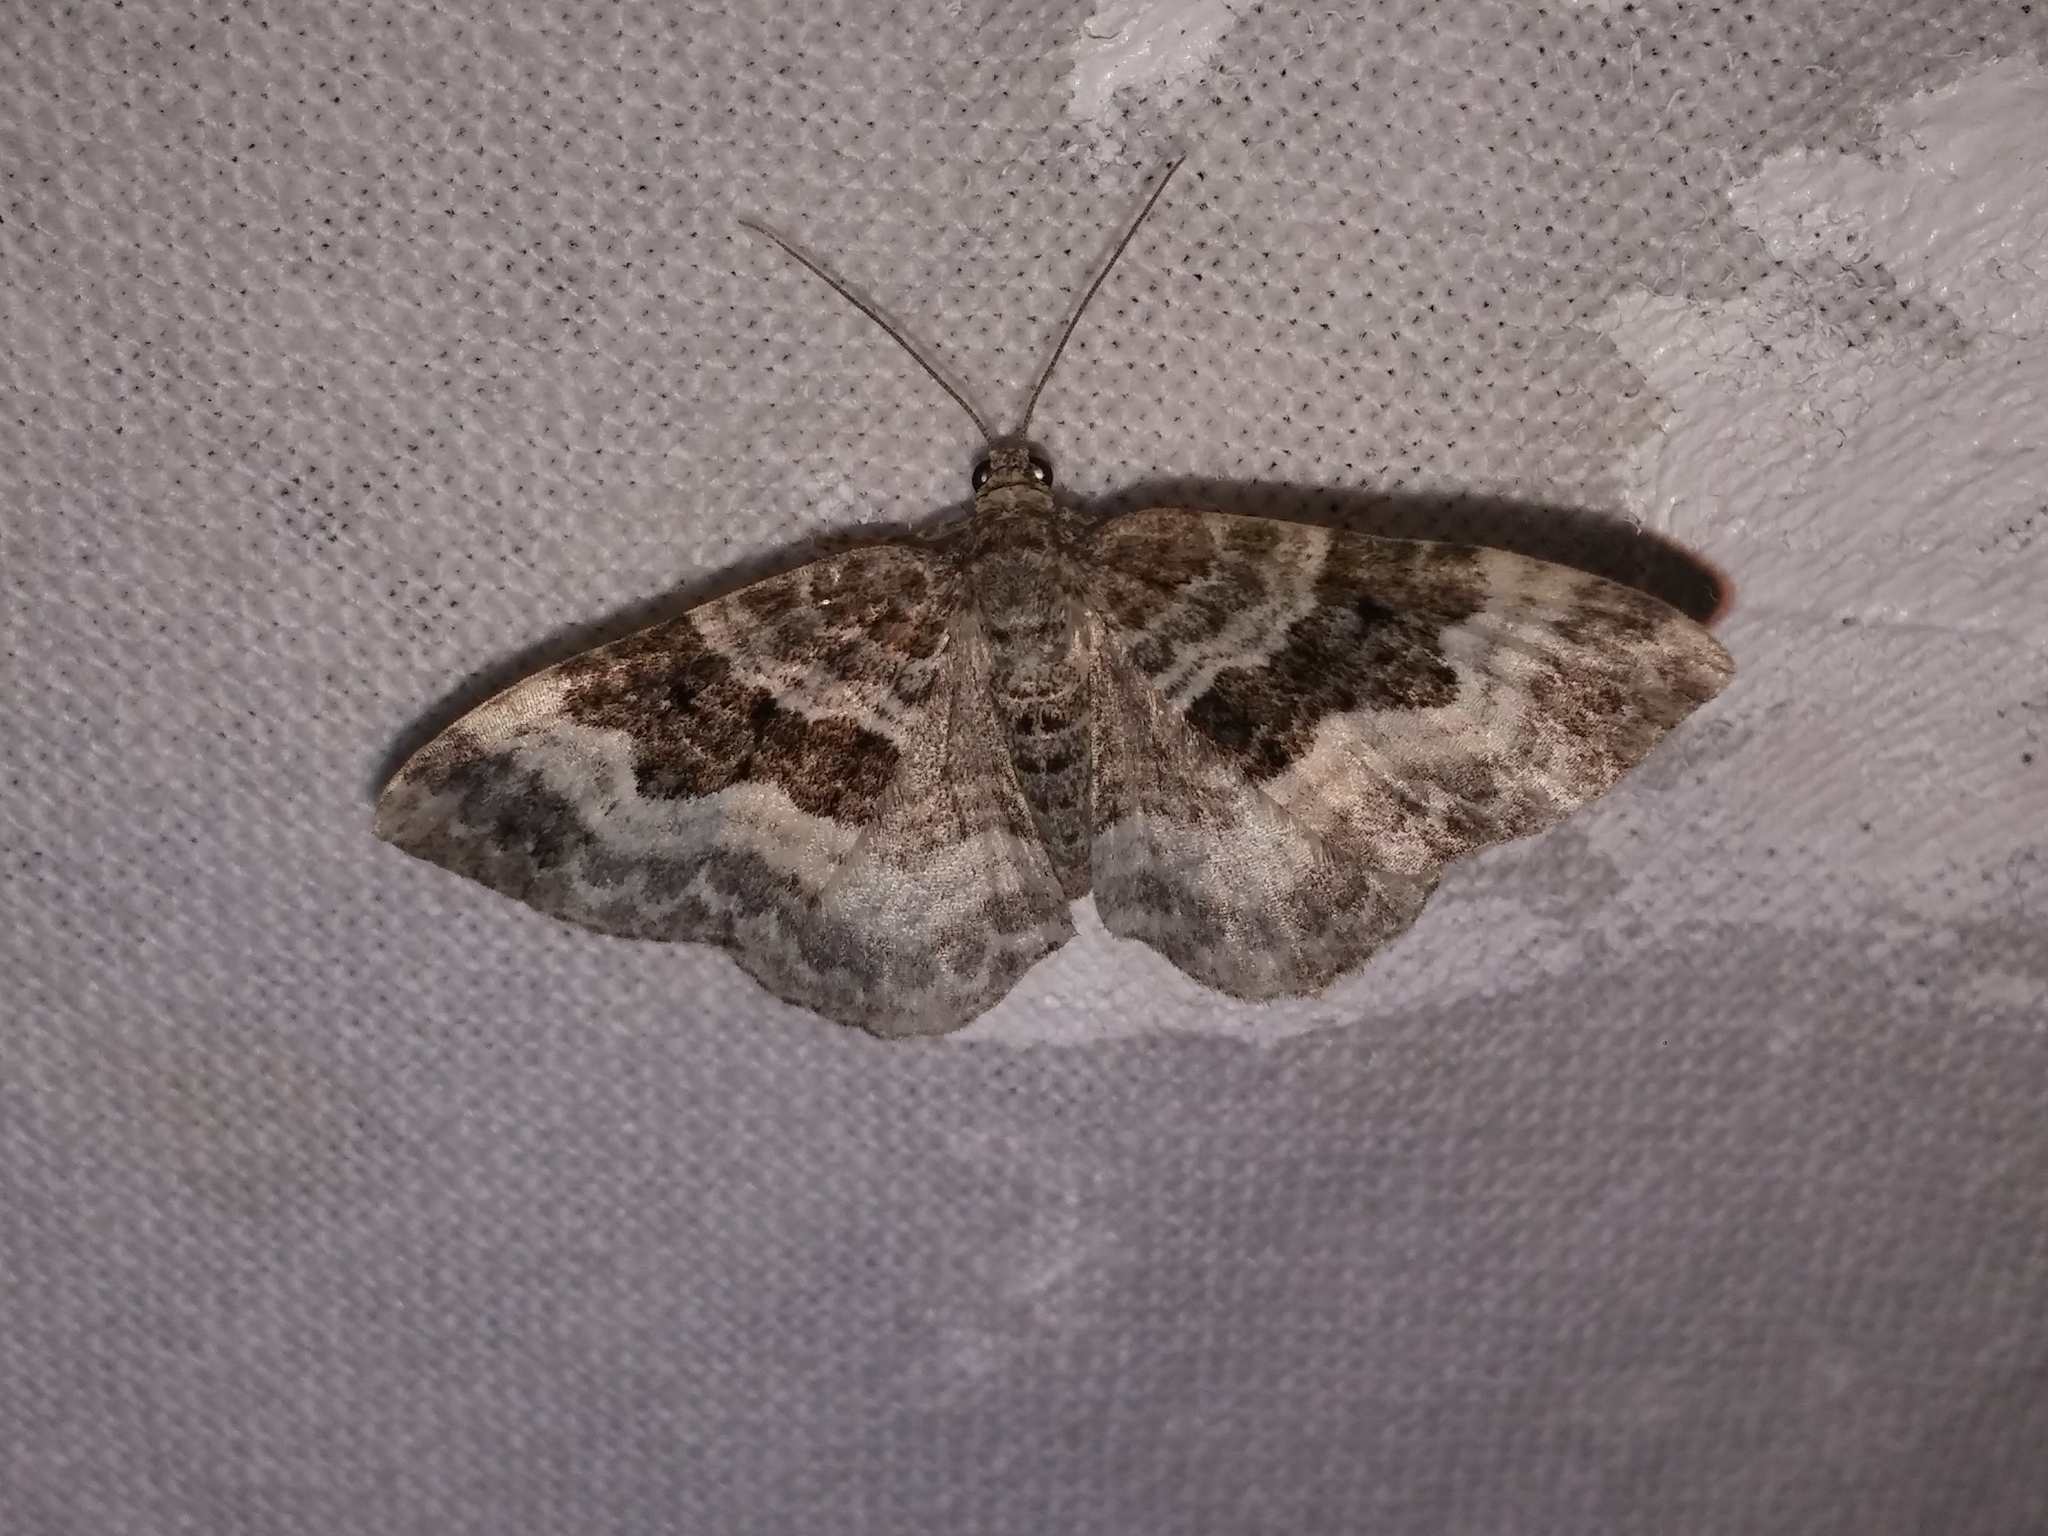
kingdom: Animalia
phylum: Arthropoda
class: Insecta
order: Lepidoptera
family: Geometridae
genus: Epirrhoe
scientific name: Epirrhoe alternata
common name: Common carpet
